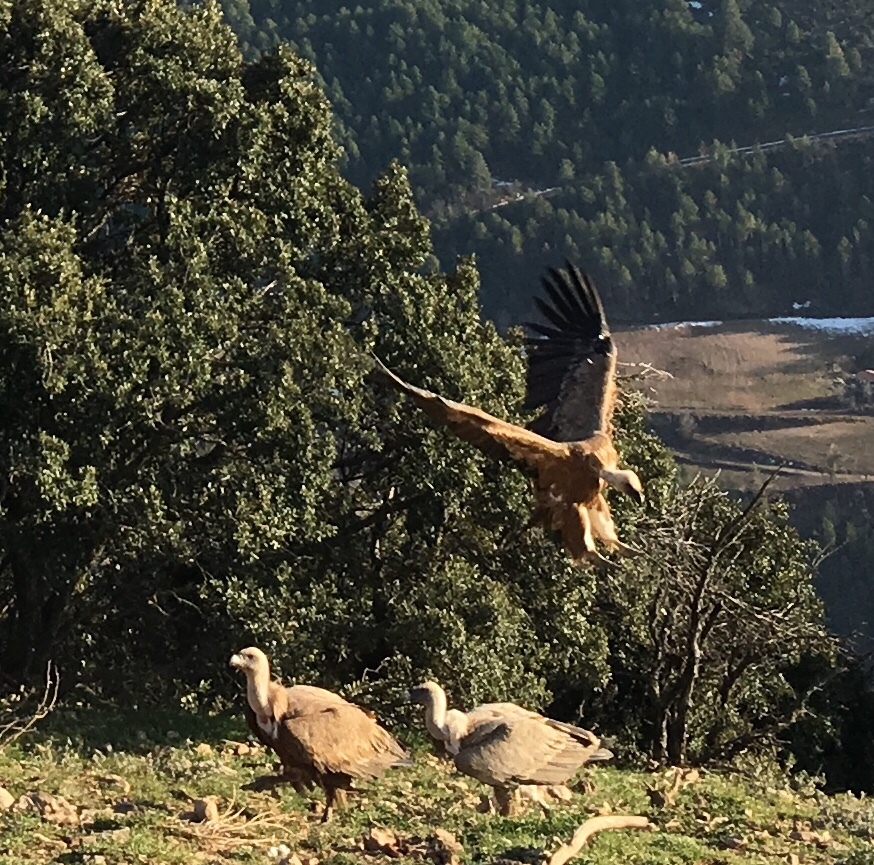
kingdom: Animalia
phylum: Chordata
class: Aves
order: Accipitriformes
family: Accipitridae
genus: Gyps
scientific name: Gyps fulvus
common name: Griffon vulture
